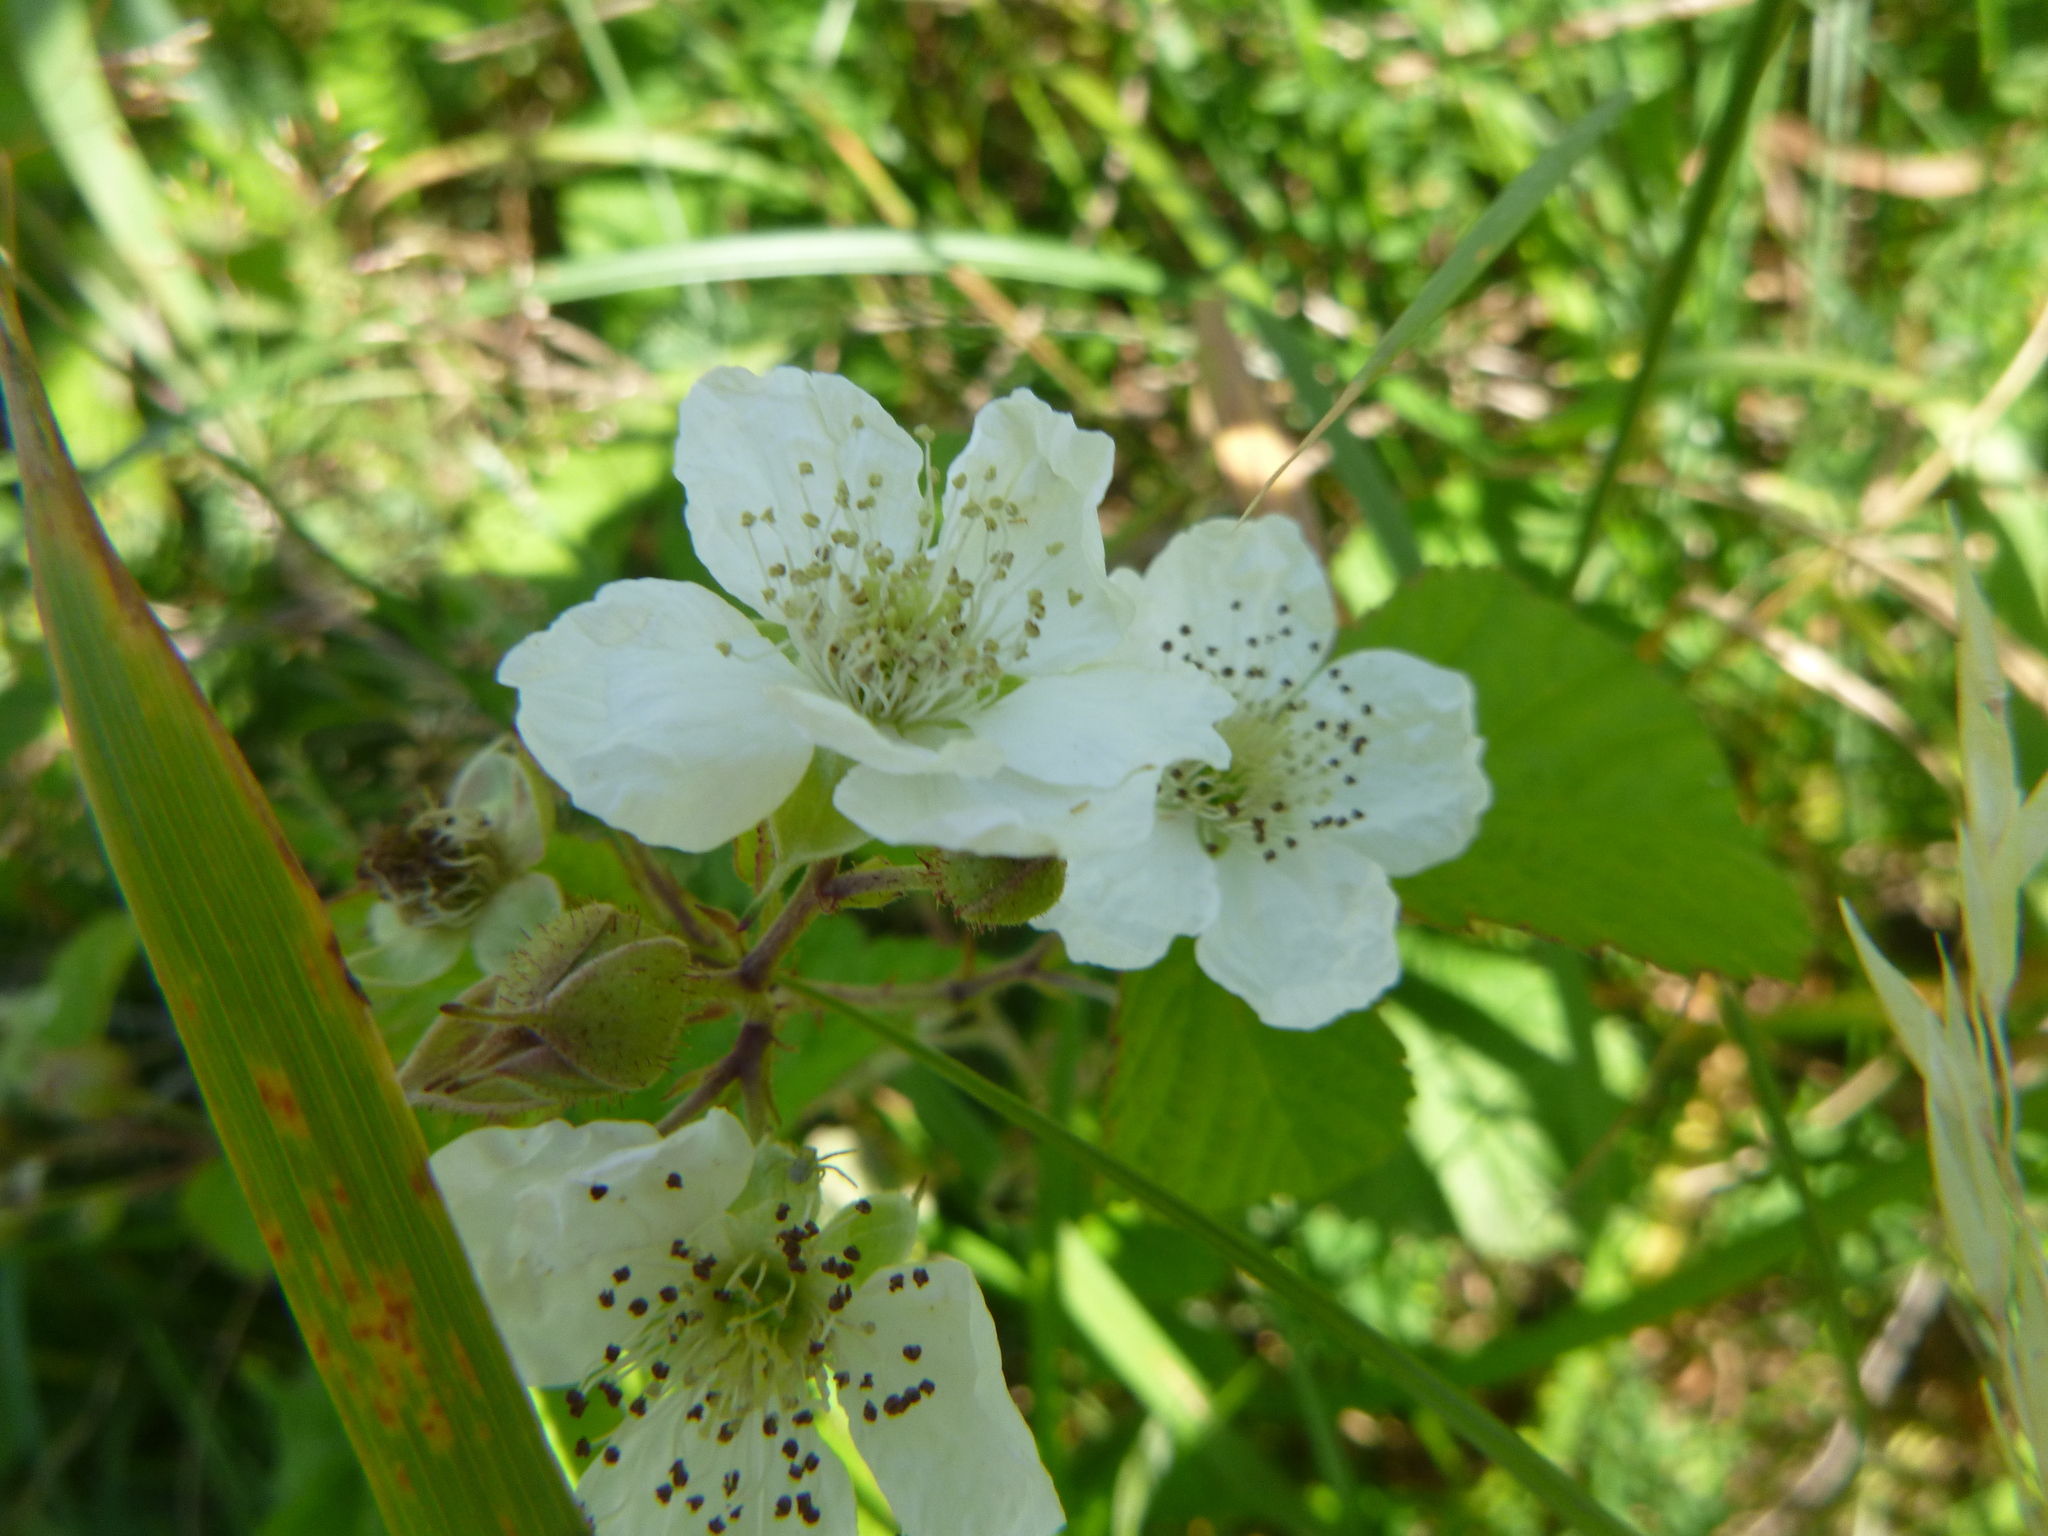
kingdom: Plantae
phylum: Tracheophyta
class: Magnoliopsida
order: Rosales
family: Rosaceae
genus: Rubus
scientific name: Rubus caesius
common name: Dewberry
